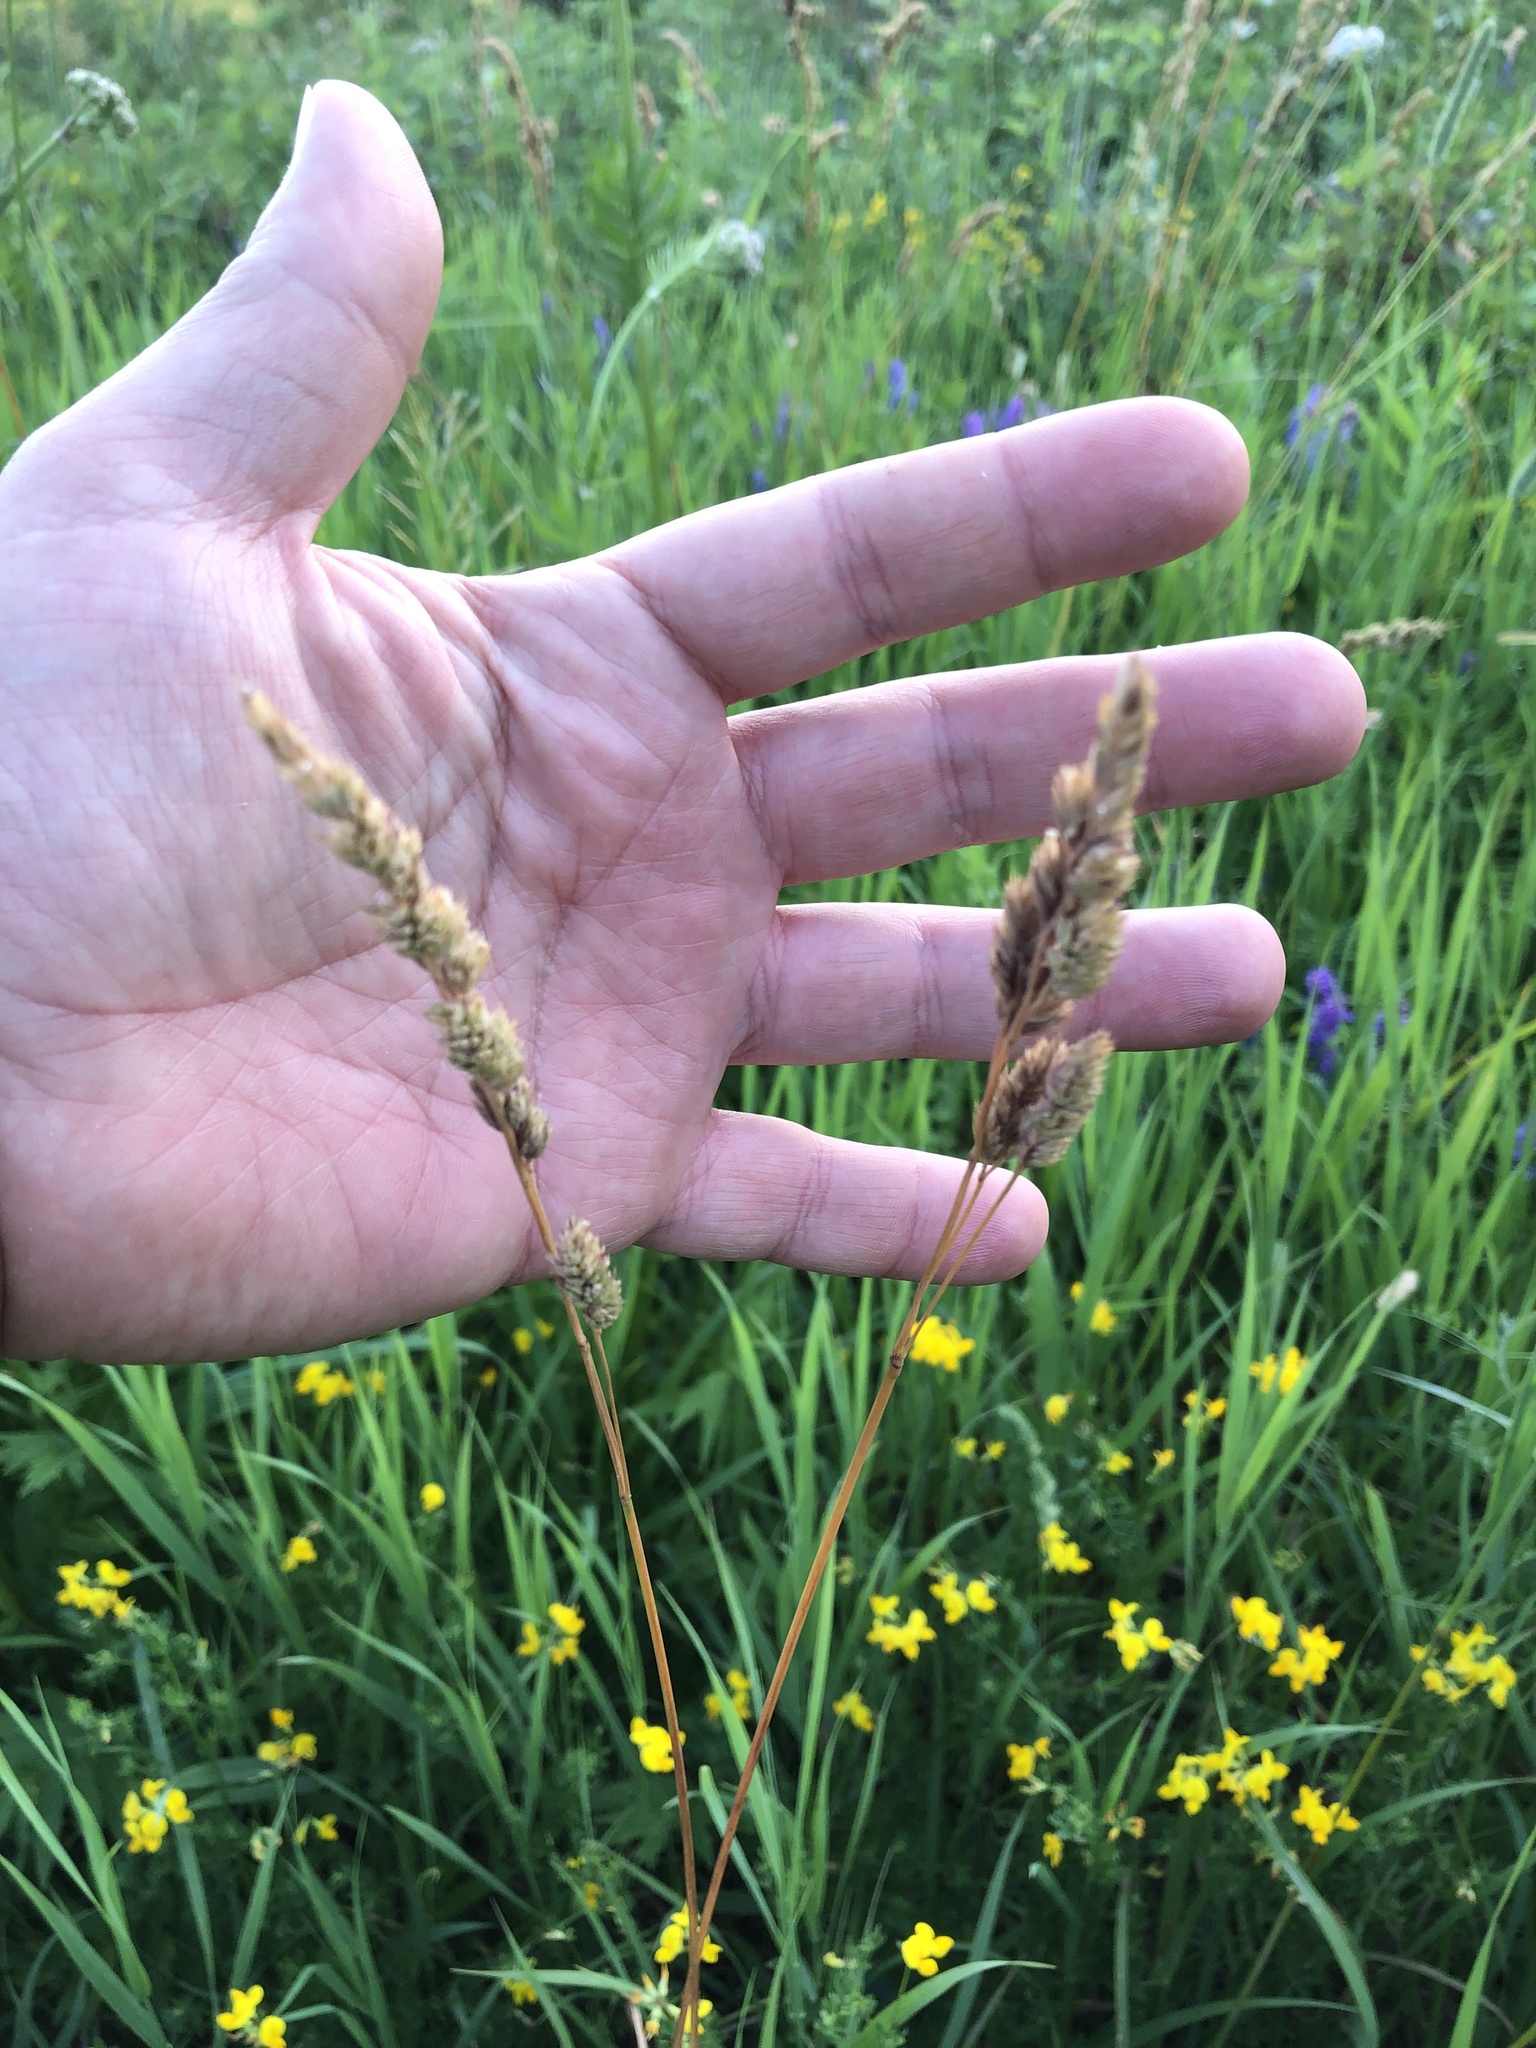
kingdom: Plantae
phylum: Tracheophyta
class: Liliopsida
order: Poales
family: Poaceae
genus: Dactylis
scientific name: Dactylis glomerata
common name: Orchardgrass
